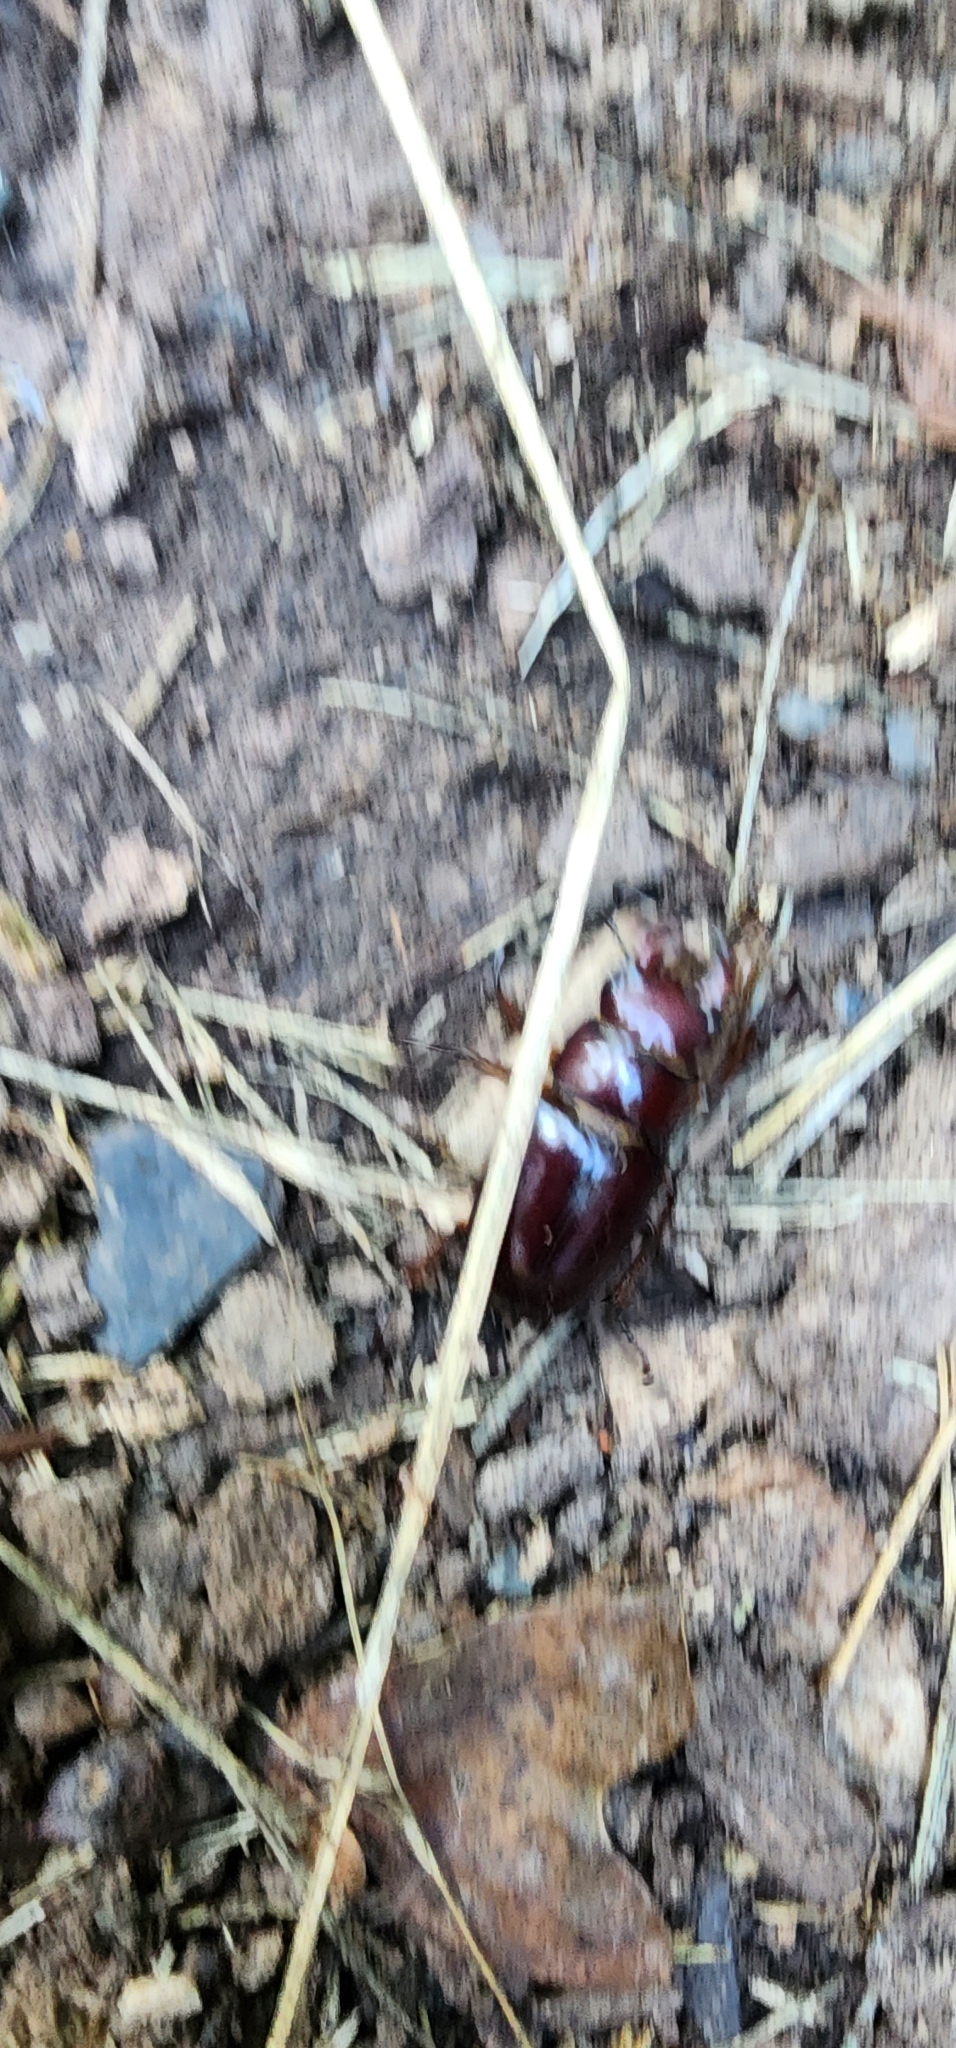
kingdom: Animalia
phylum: Arthropoda
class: Insecta
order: Coleoptera
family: Lucanidae
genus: Lucanus
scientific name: Lucanus capreolus
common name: Stag beetle
